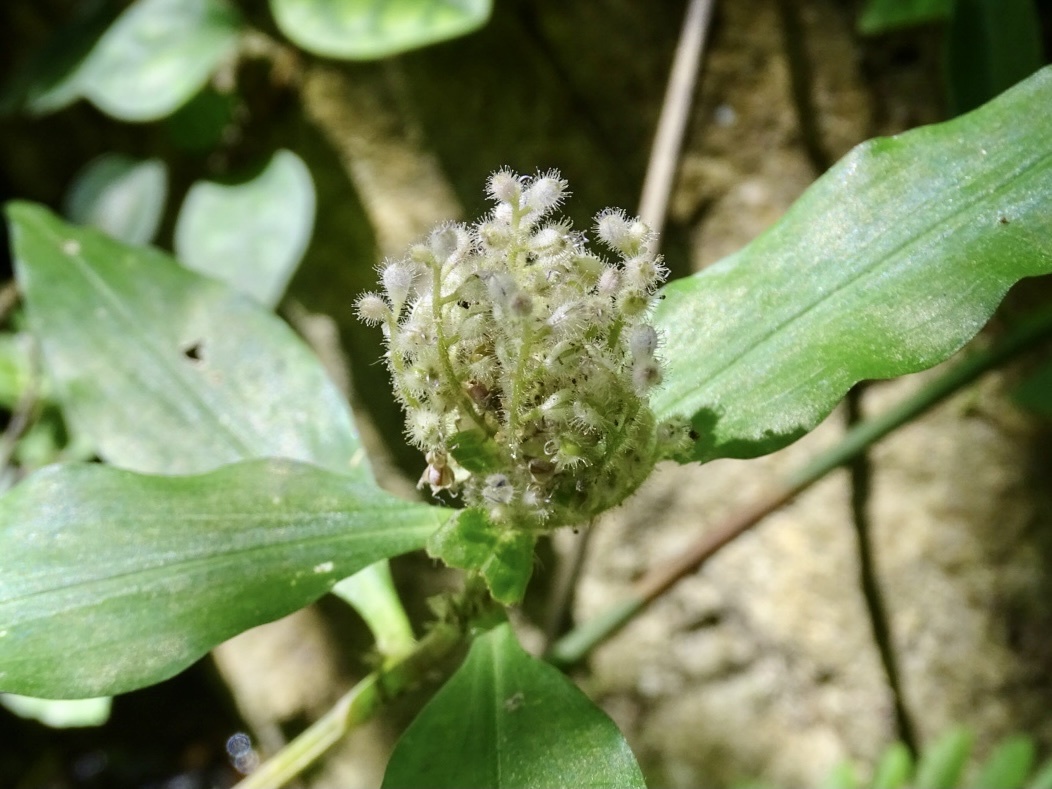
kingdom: Plantae
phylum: Tracheophyta
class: Liliopsida
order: Commelinales
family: Commelinaceae
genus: Floscopa
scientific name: Floscopa scandens
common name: Climbing flower cup
